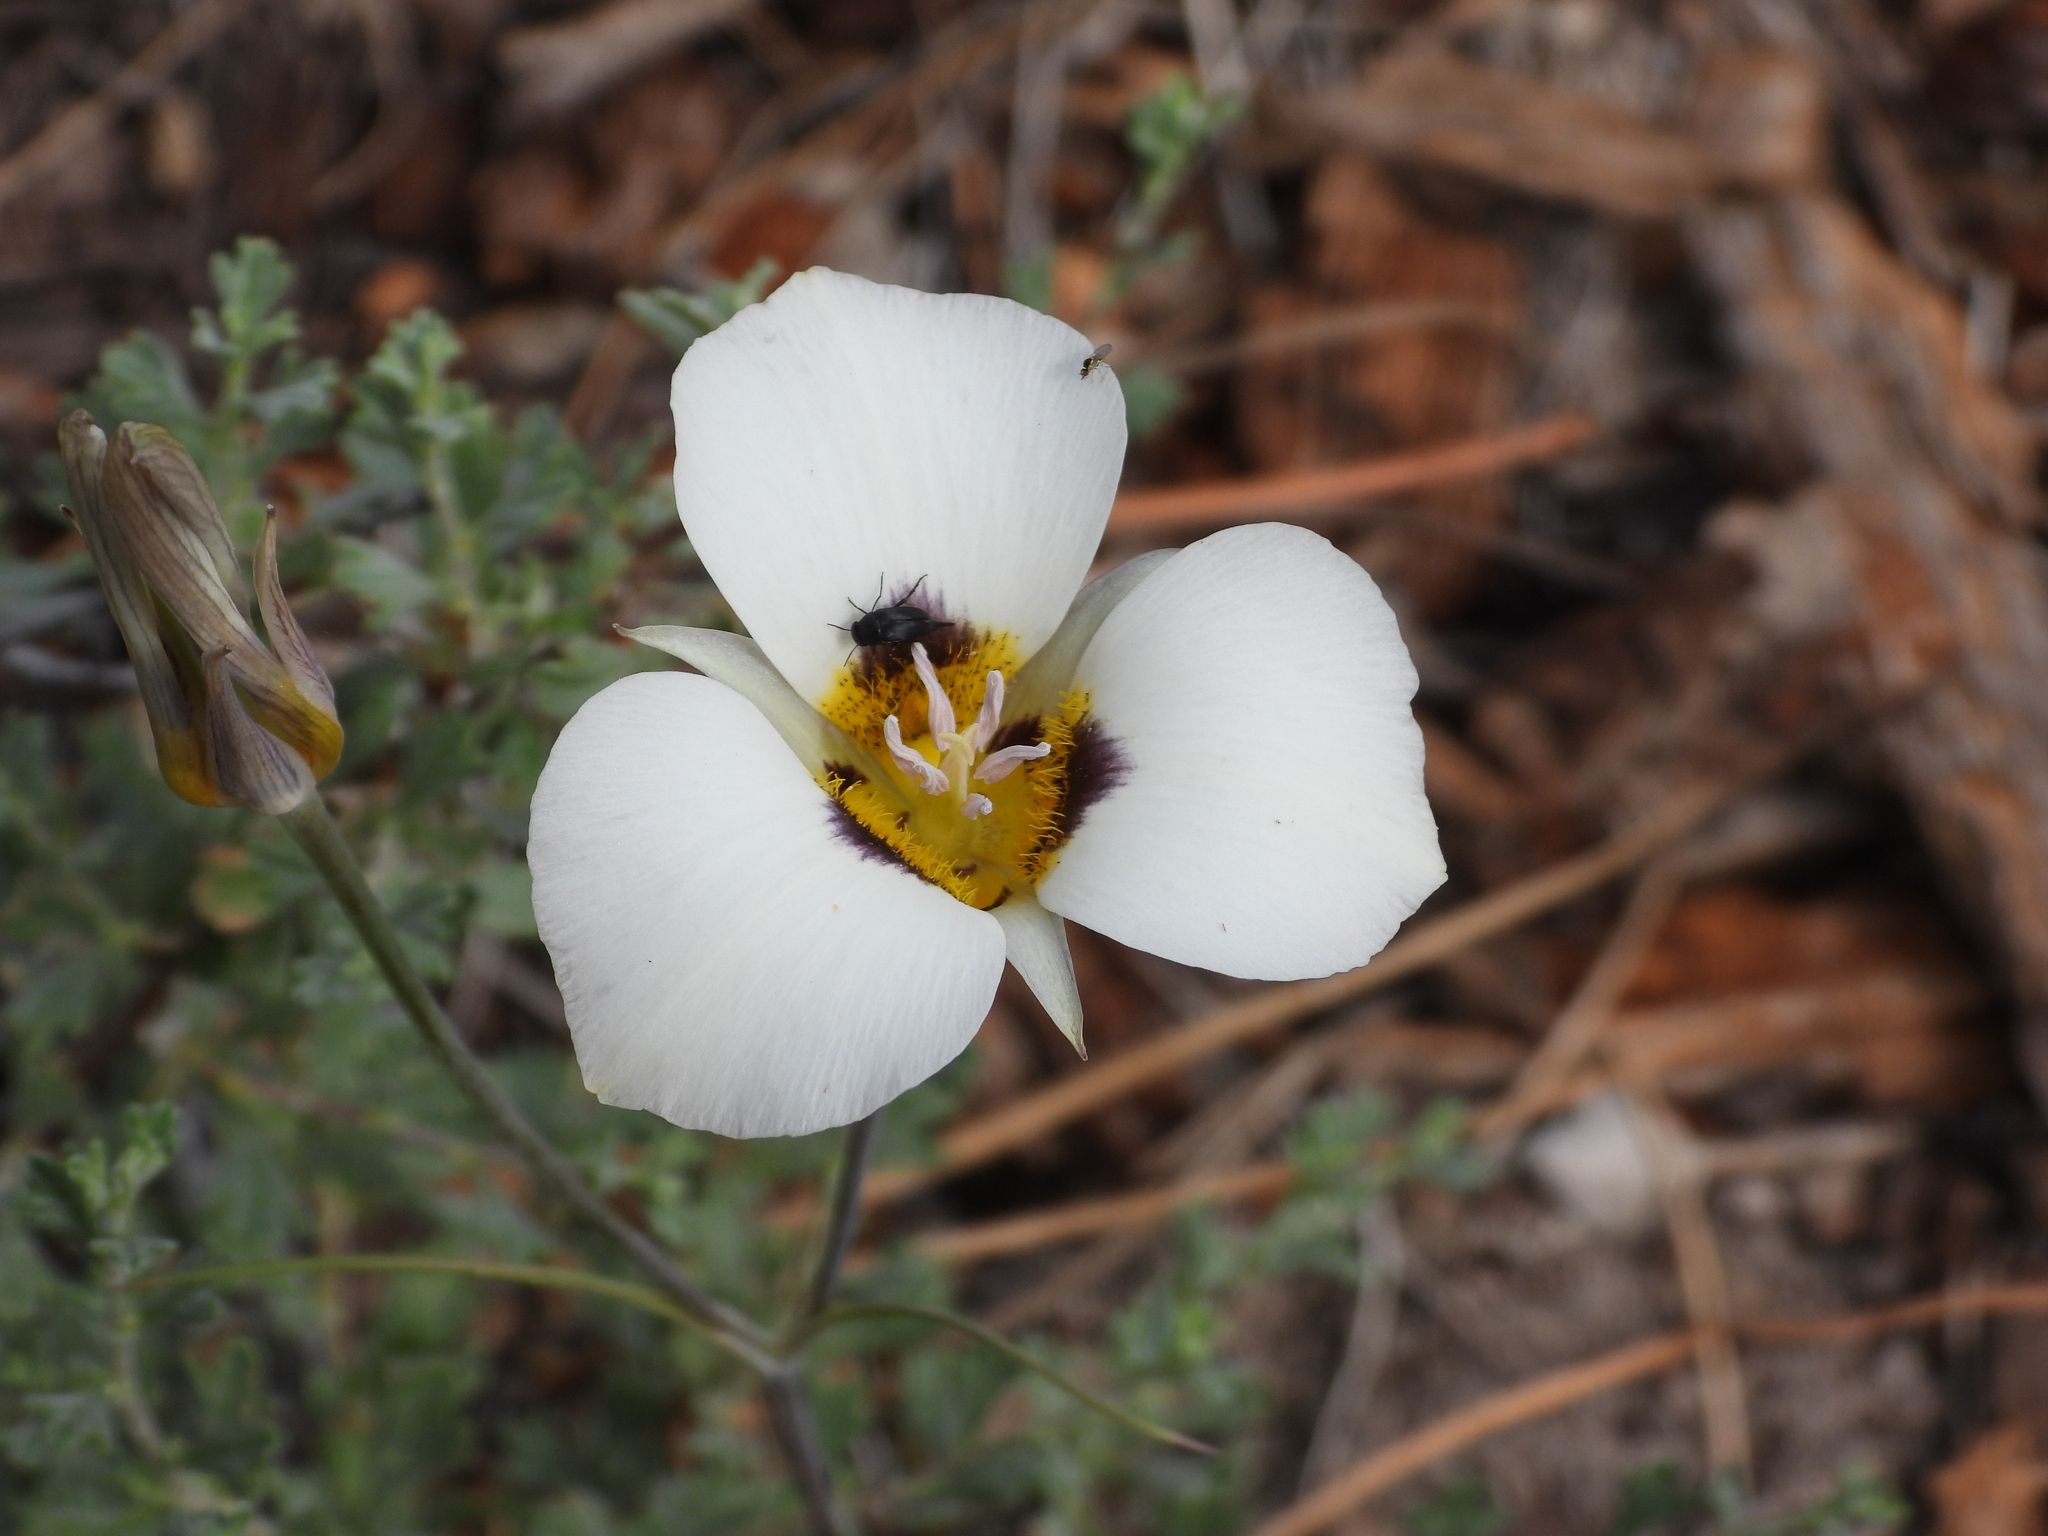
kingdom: Plantae
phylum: Tracheophyta
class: Liliopsida
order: Liliales
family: Liliaceae
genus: Calochortus
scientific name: Calochortus leichtlinii
